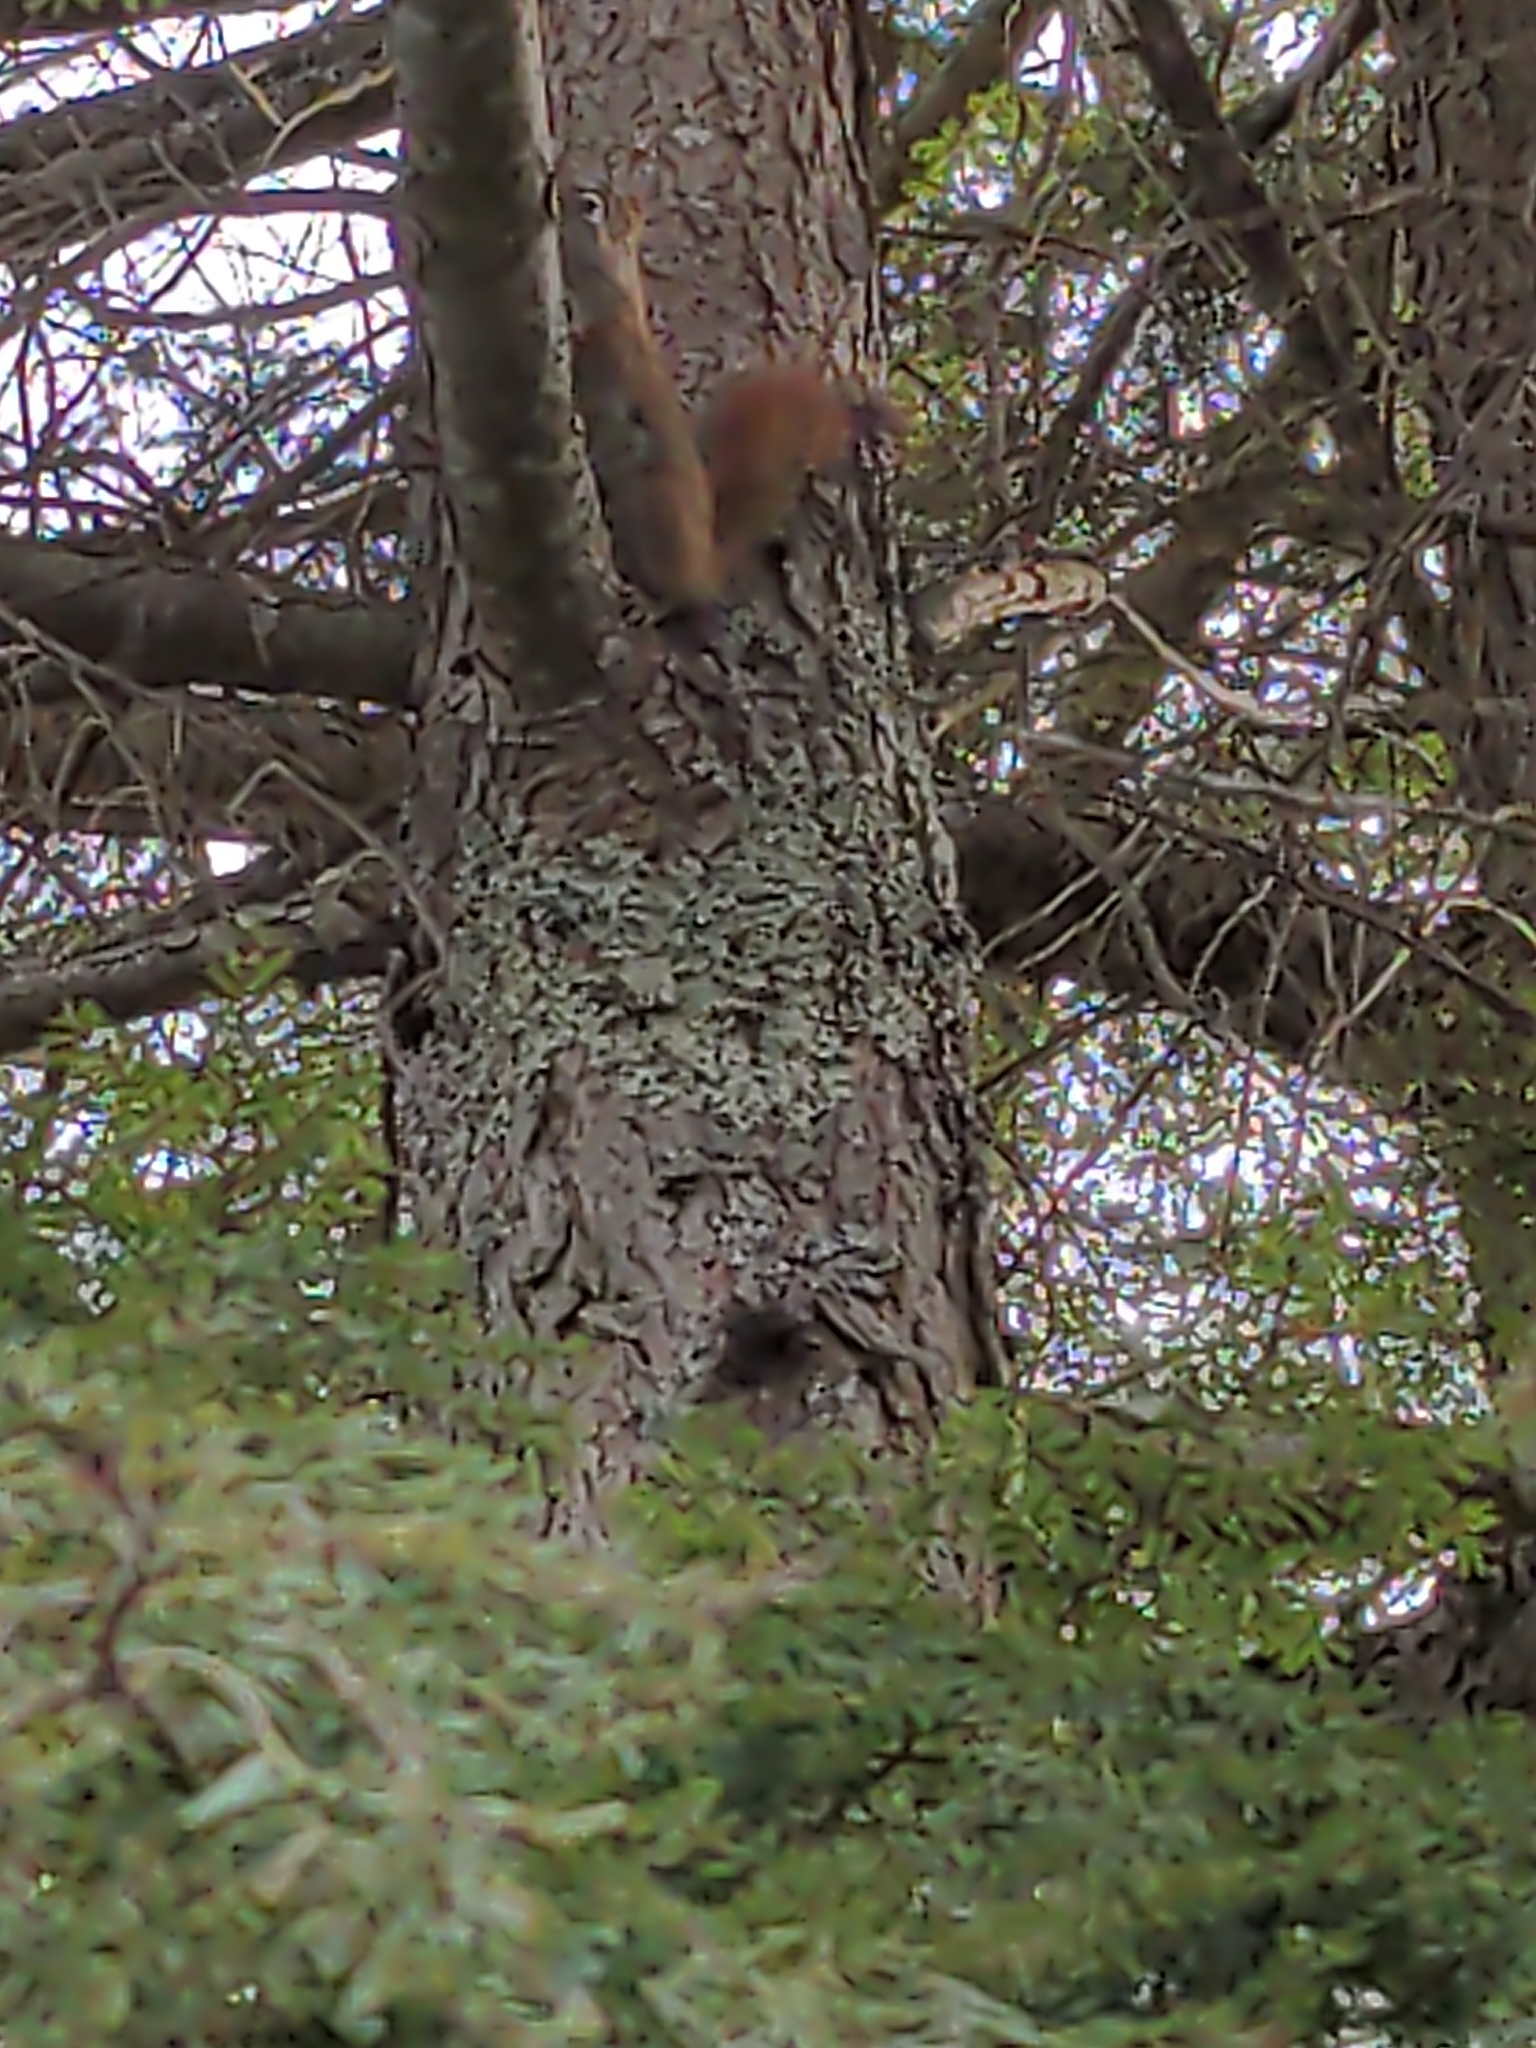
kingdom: Animalia
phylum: Chordata
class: Mammalia
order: Rodentia
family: Sciuridae
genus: Tamiasciurus
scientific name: Tamiasciurus hudsonicus
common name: Red squirrel
